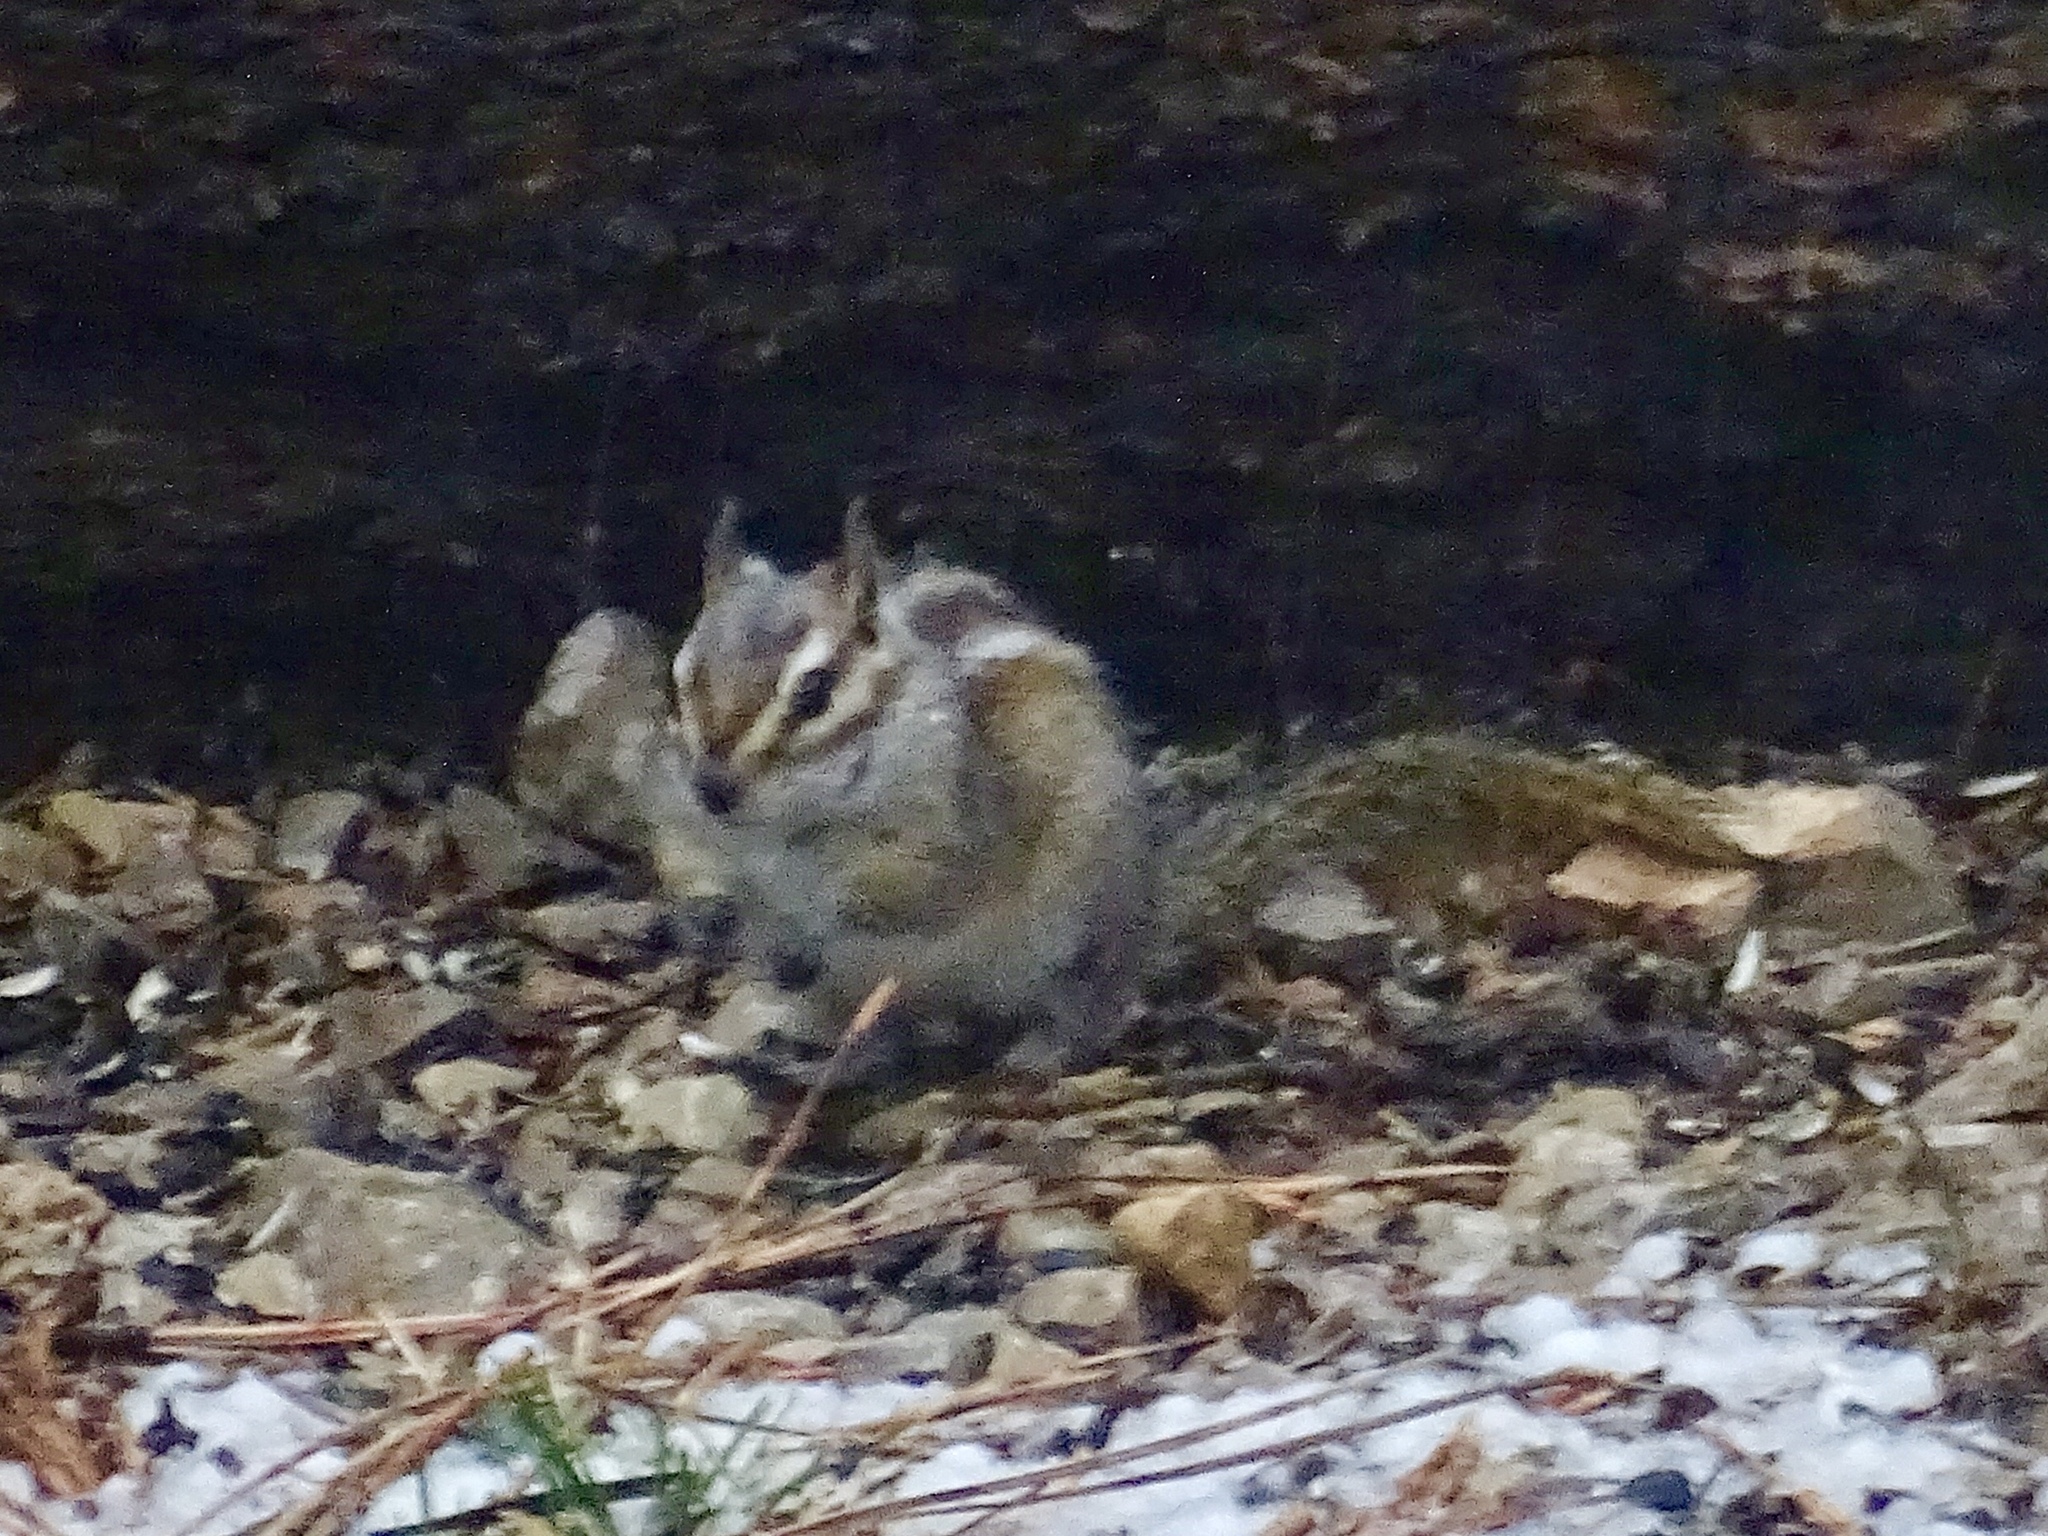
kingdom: Animalia
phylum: Chordata
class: Mammalia
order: Rodentia
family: Sciuridae
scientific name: Sciuridae
